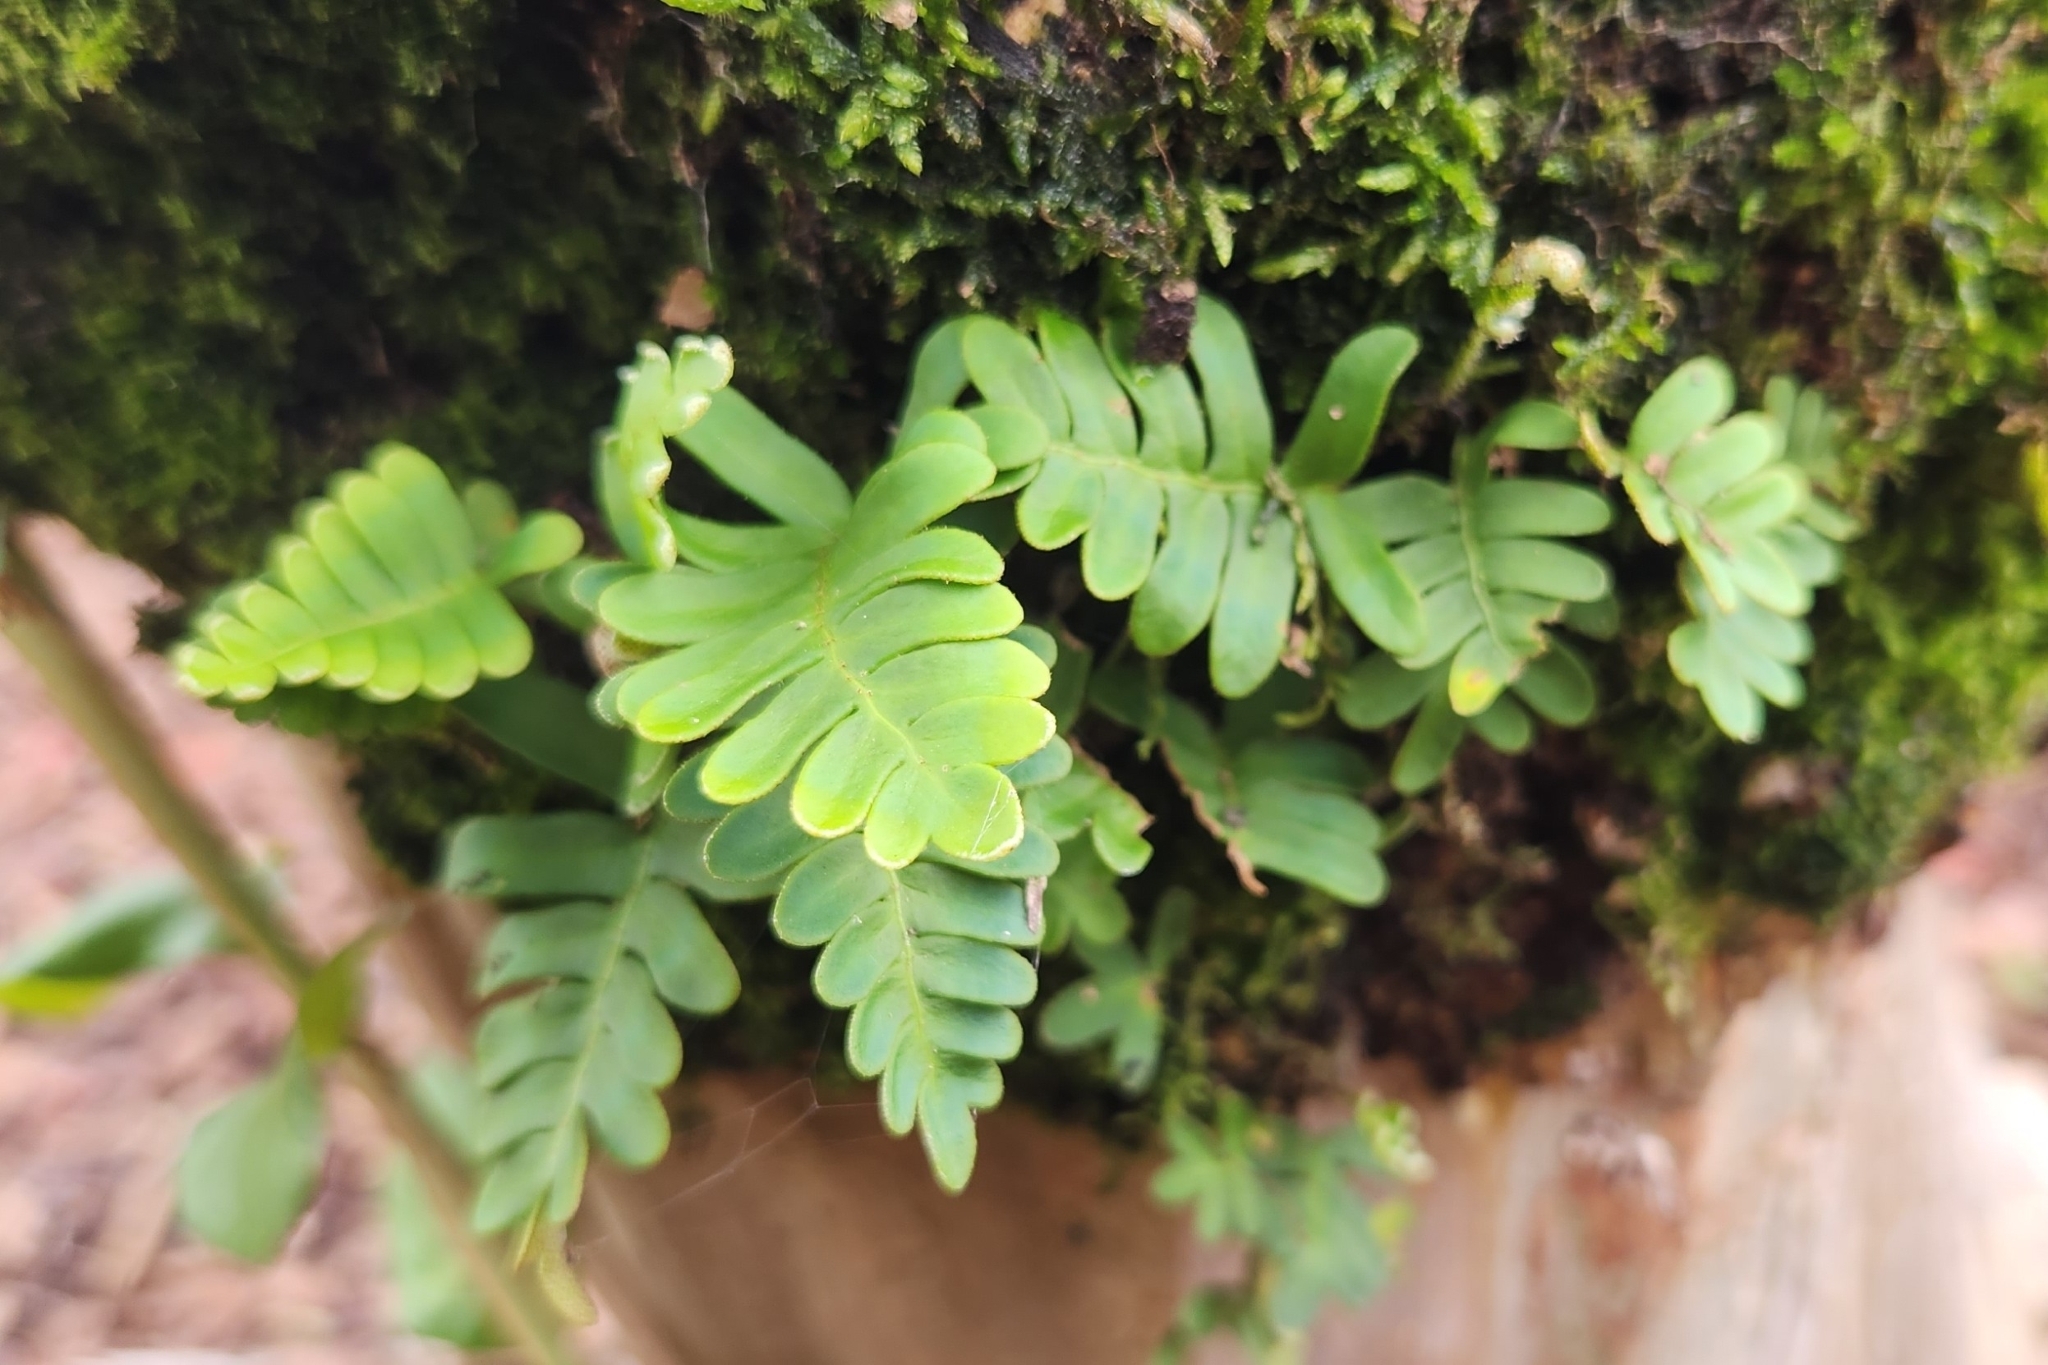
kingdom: Plantae
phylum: Tracheophyta
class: Polypodiopsida
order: Polypodiales
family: Polypodiaceae
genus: Pleopeltis
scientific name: Pleopeltis michauxiana
